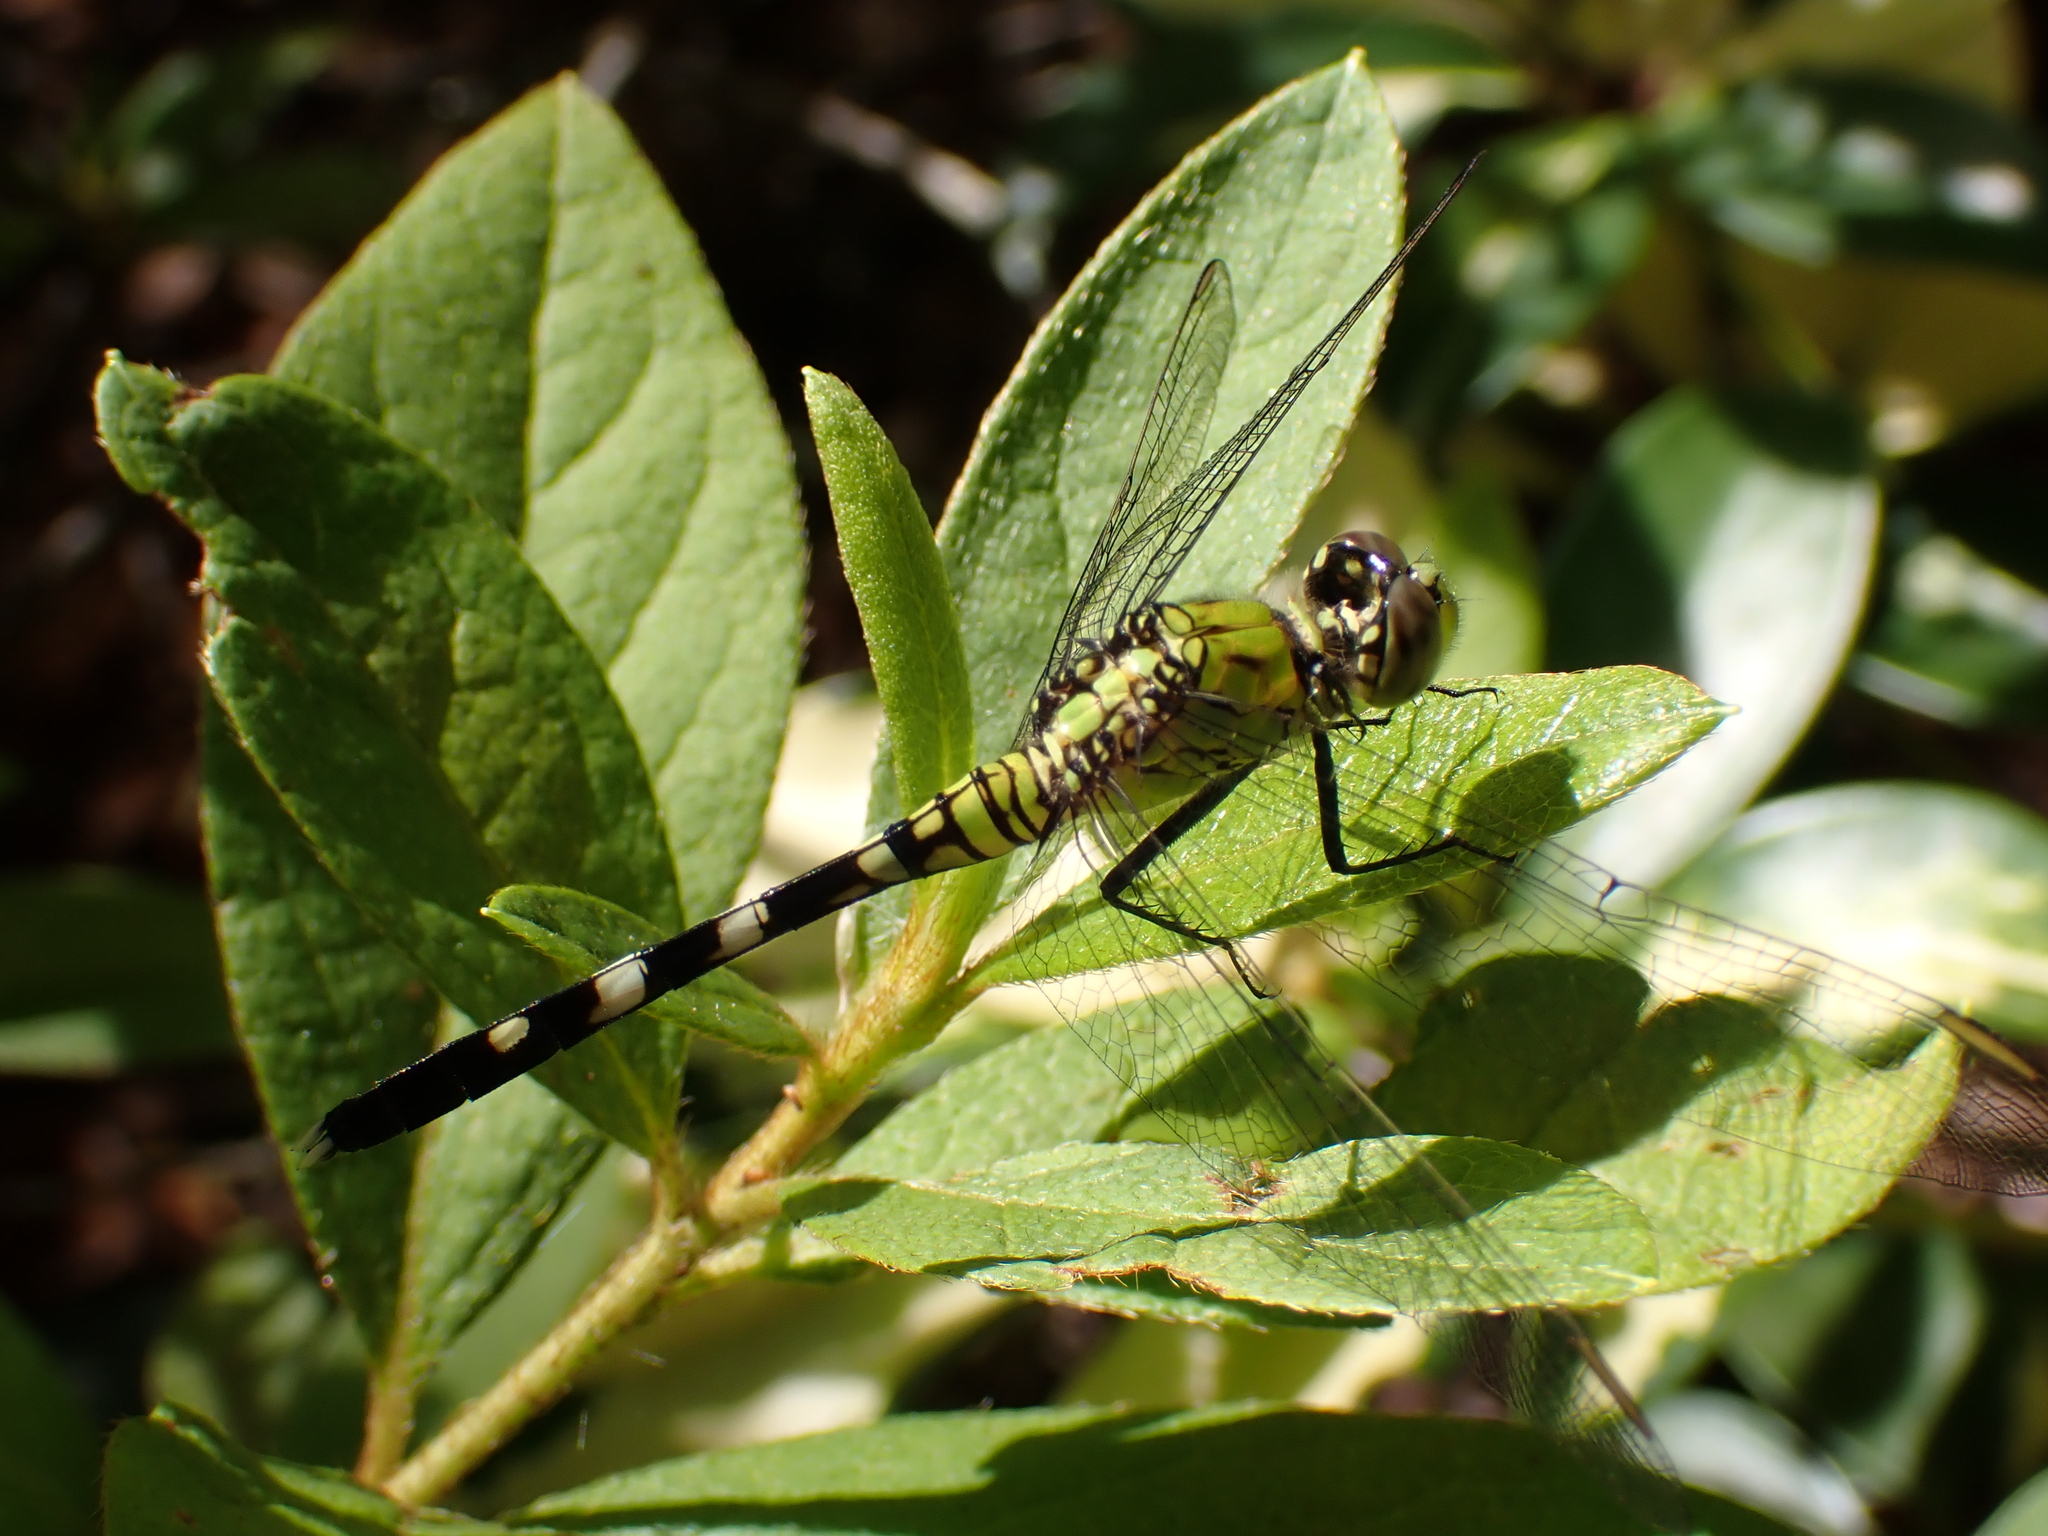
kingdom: Animalia
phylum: Arthropoda
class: Insecta
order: Odonata
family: Libellulidae
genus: Erythemis
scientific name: Erythemis simplicicollis
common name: Eastern pondhawk
